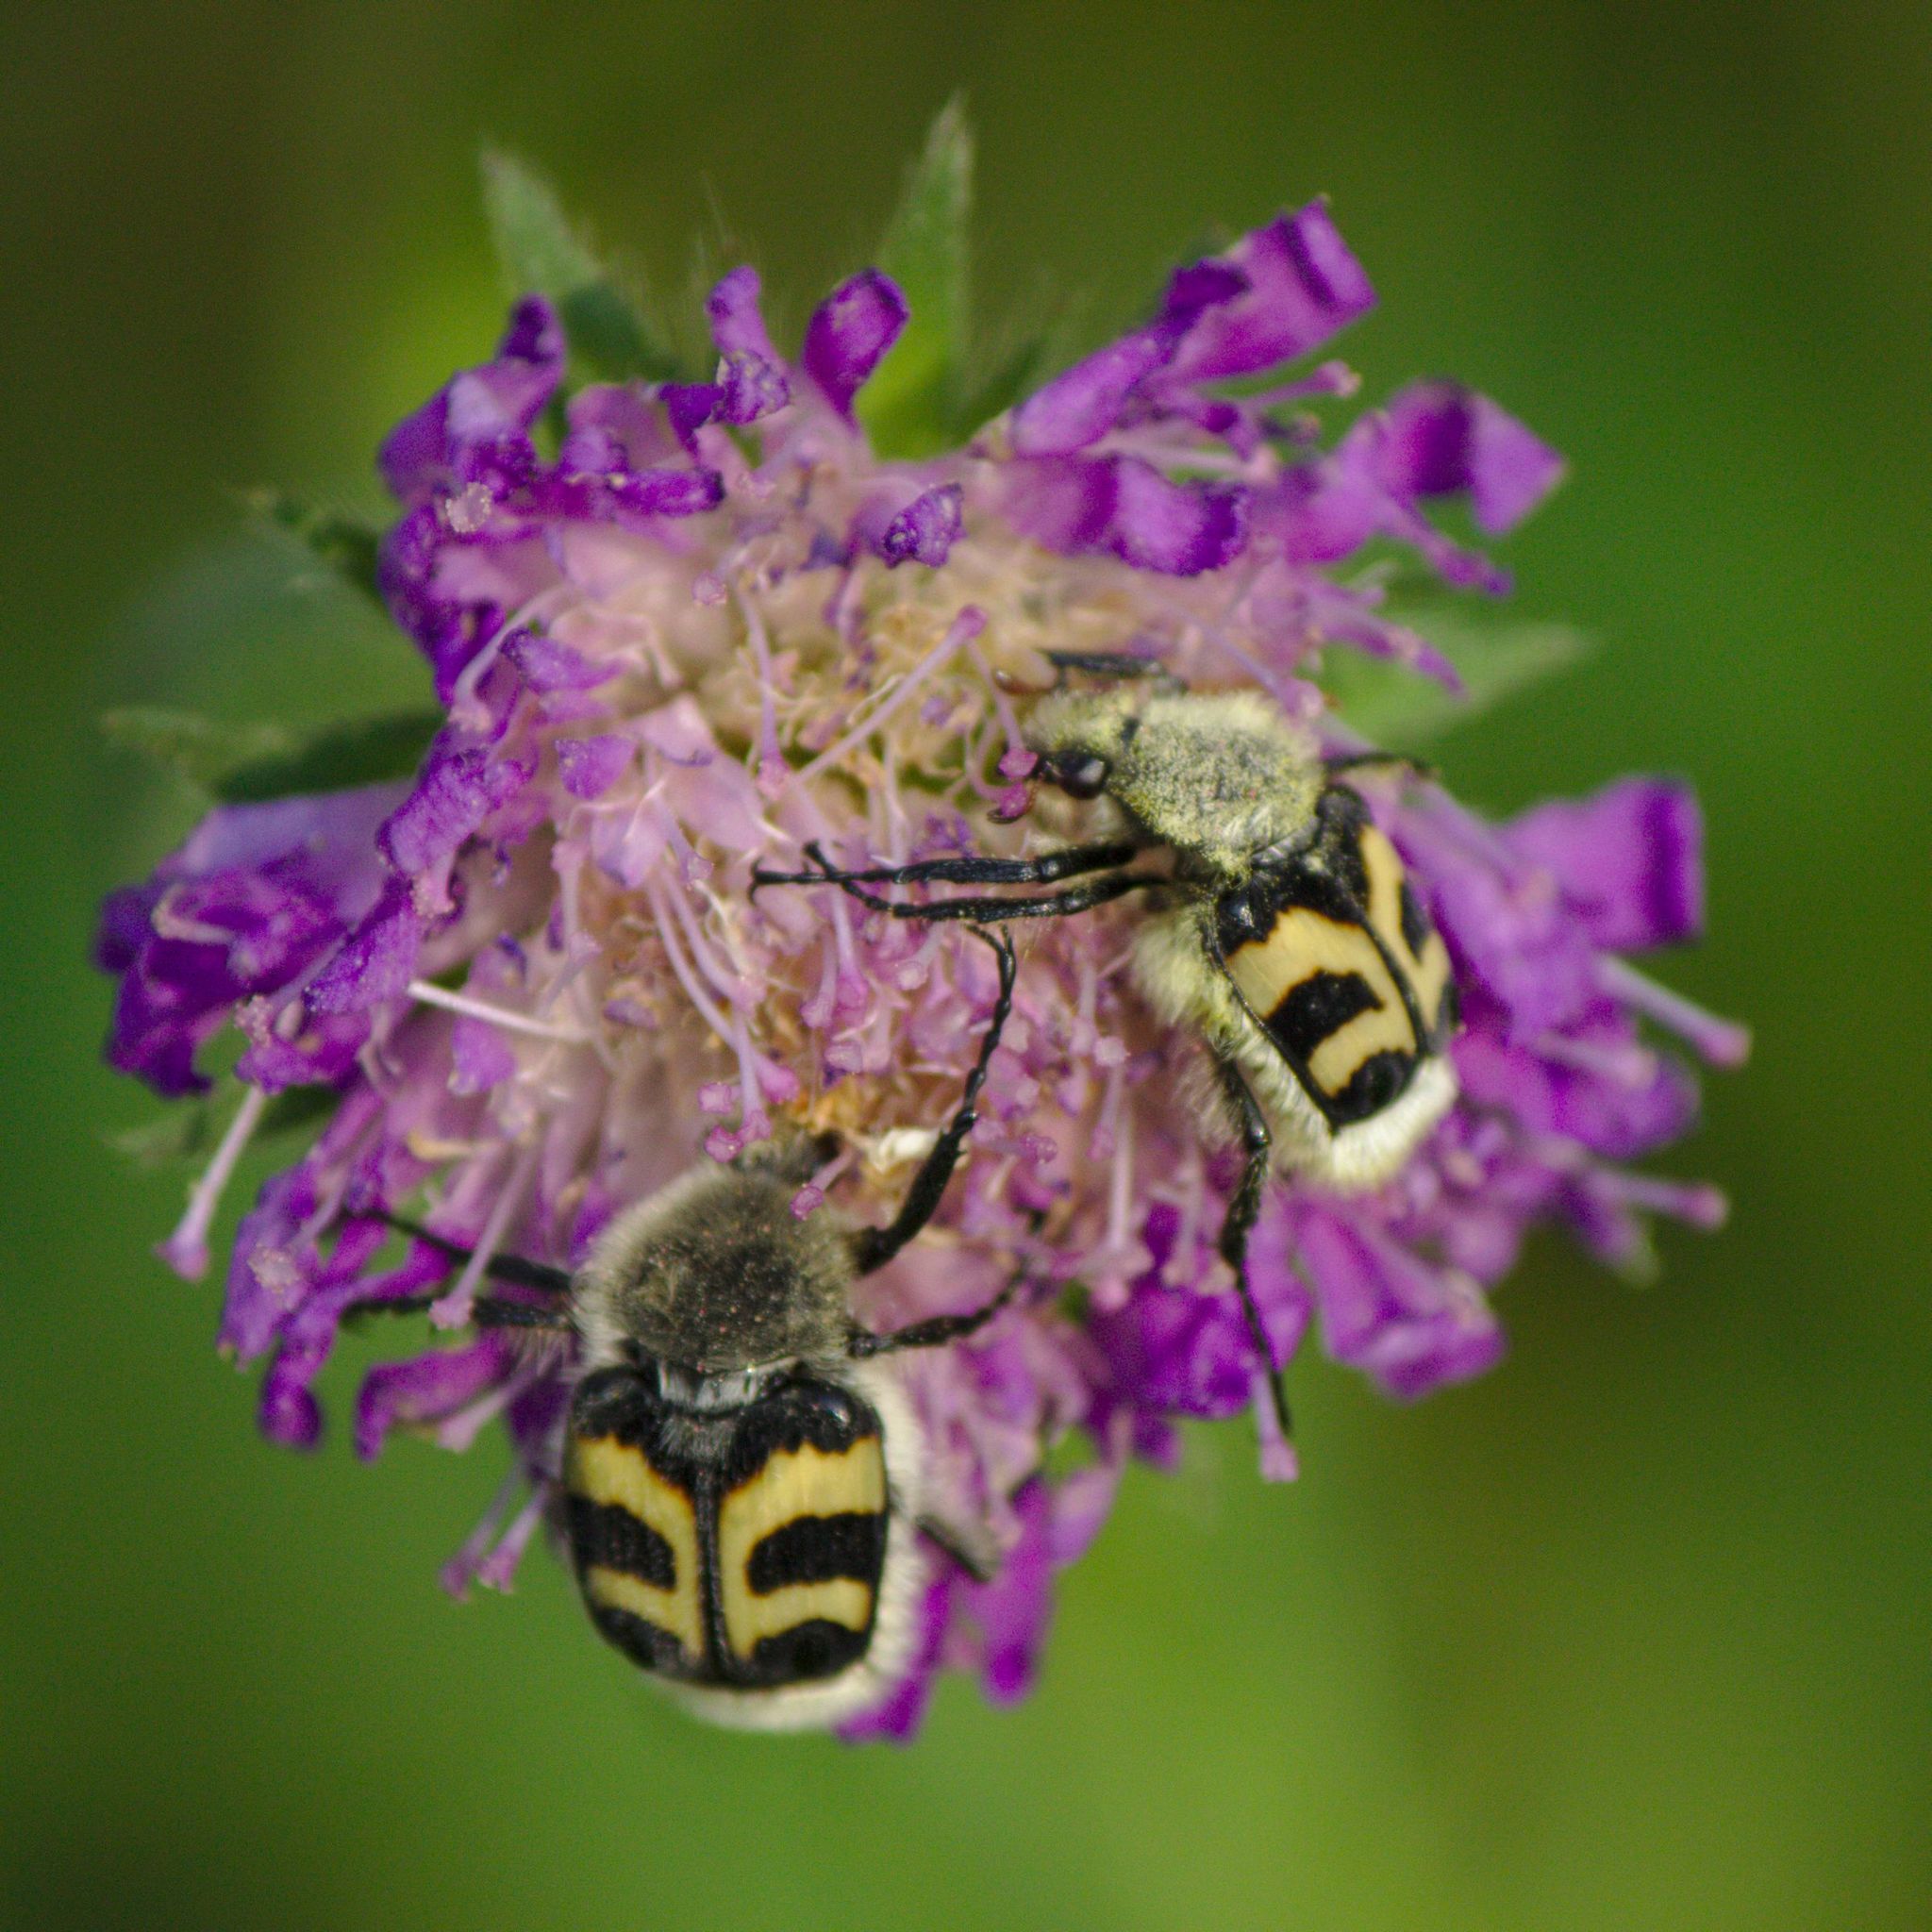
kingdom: Animalia
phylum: Arthropoda
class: Insecta
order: Coleoptera
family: Scarabaeidae
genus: Trichius
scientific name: Trichius fasciatus
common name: Bee beetle
